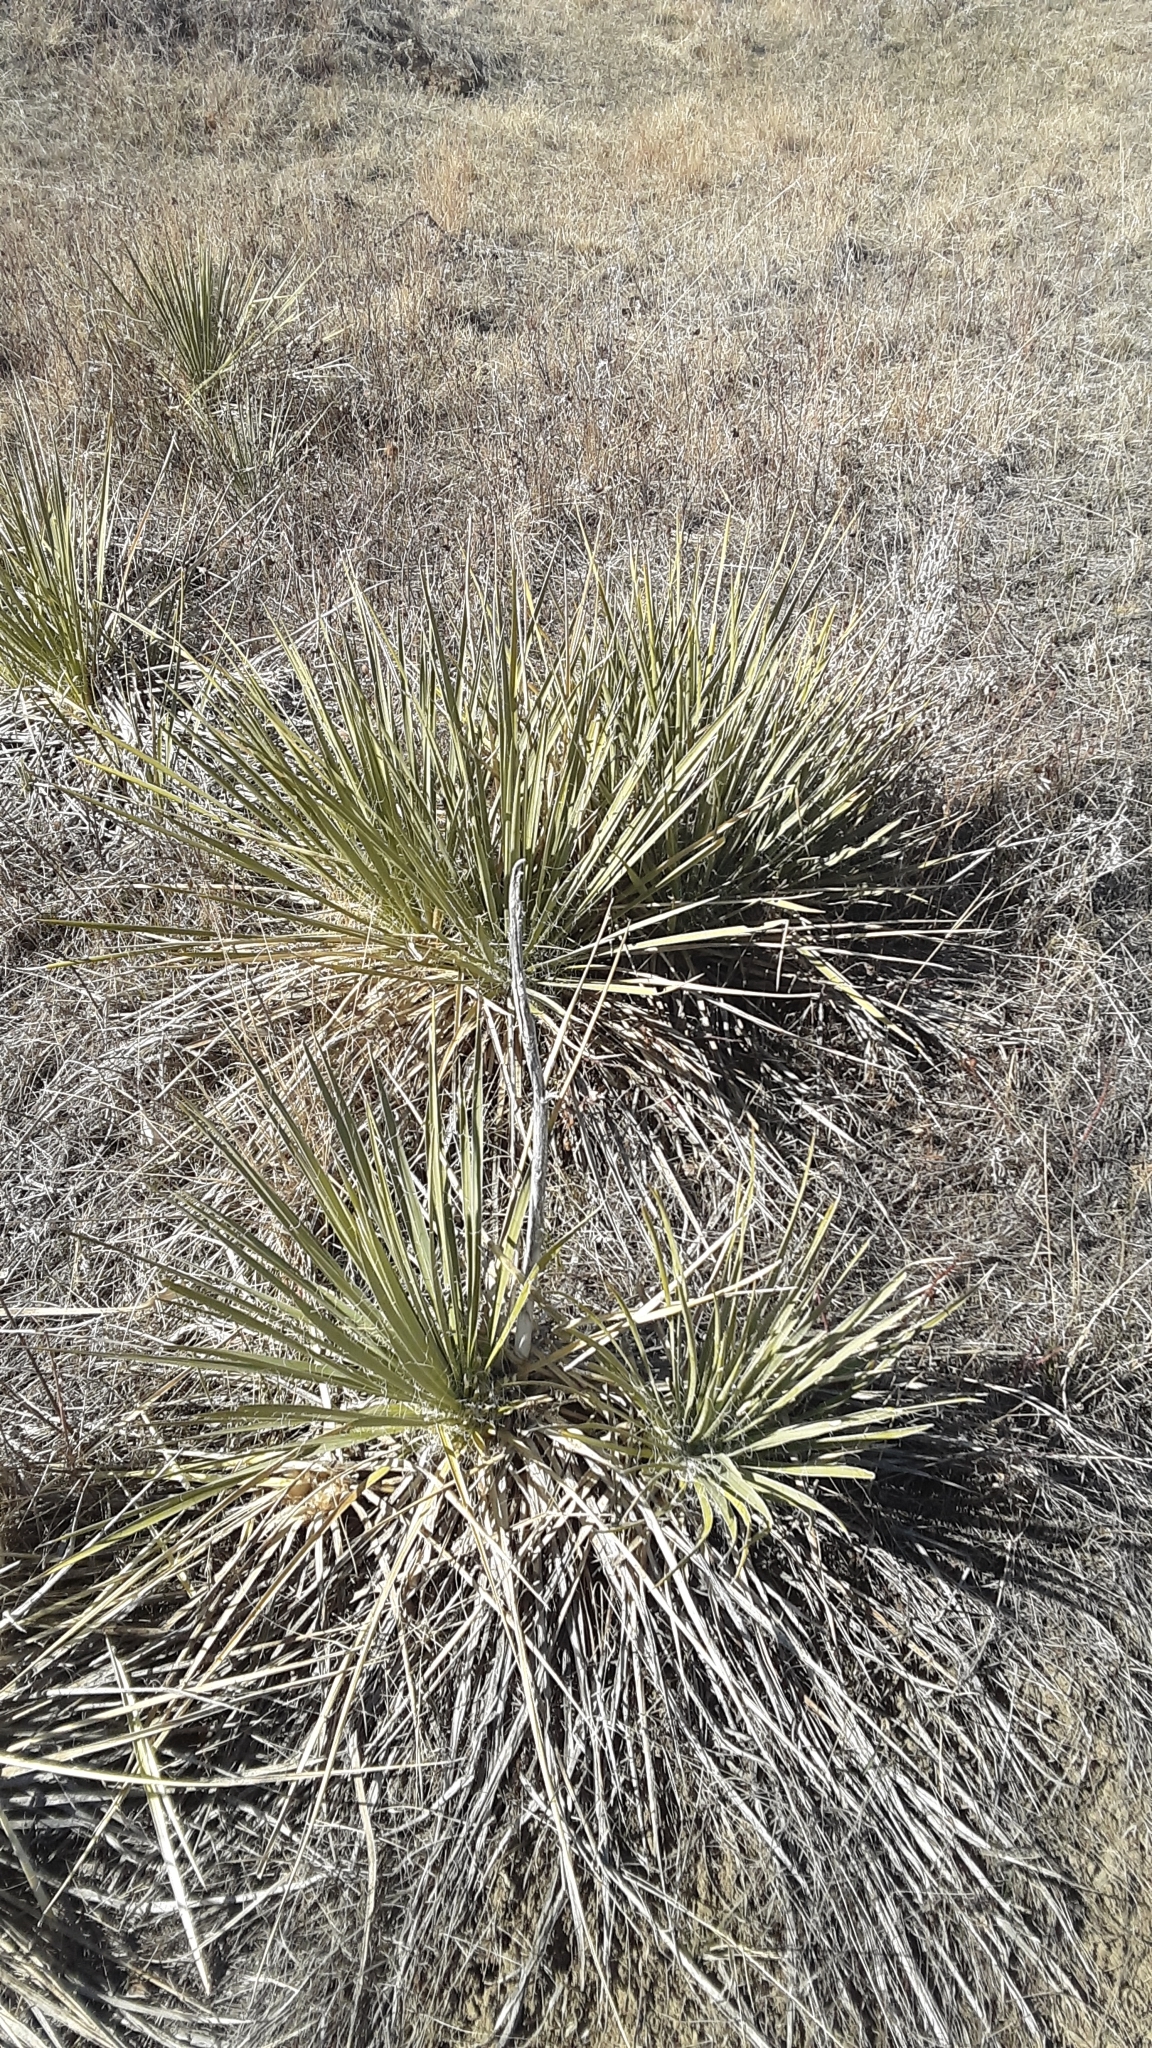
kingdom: Plantae
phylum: Tracheophyta
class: Liliopsida
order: Asparagales
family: Asparagaceae
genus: Yucca
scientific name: Yucca glauca
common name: Great plains yucca
